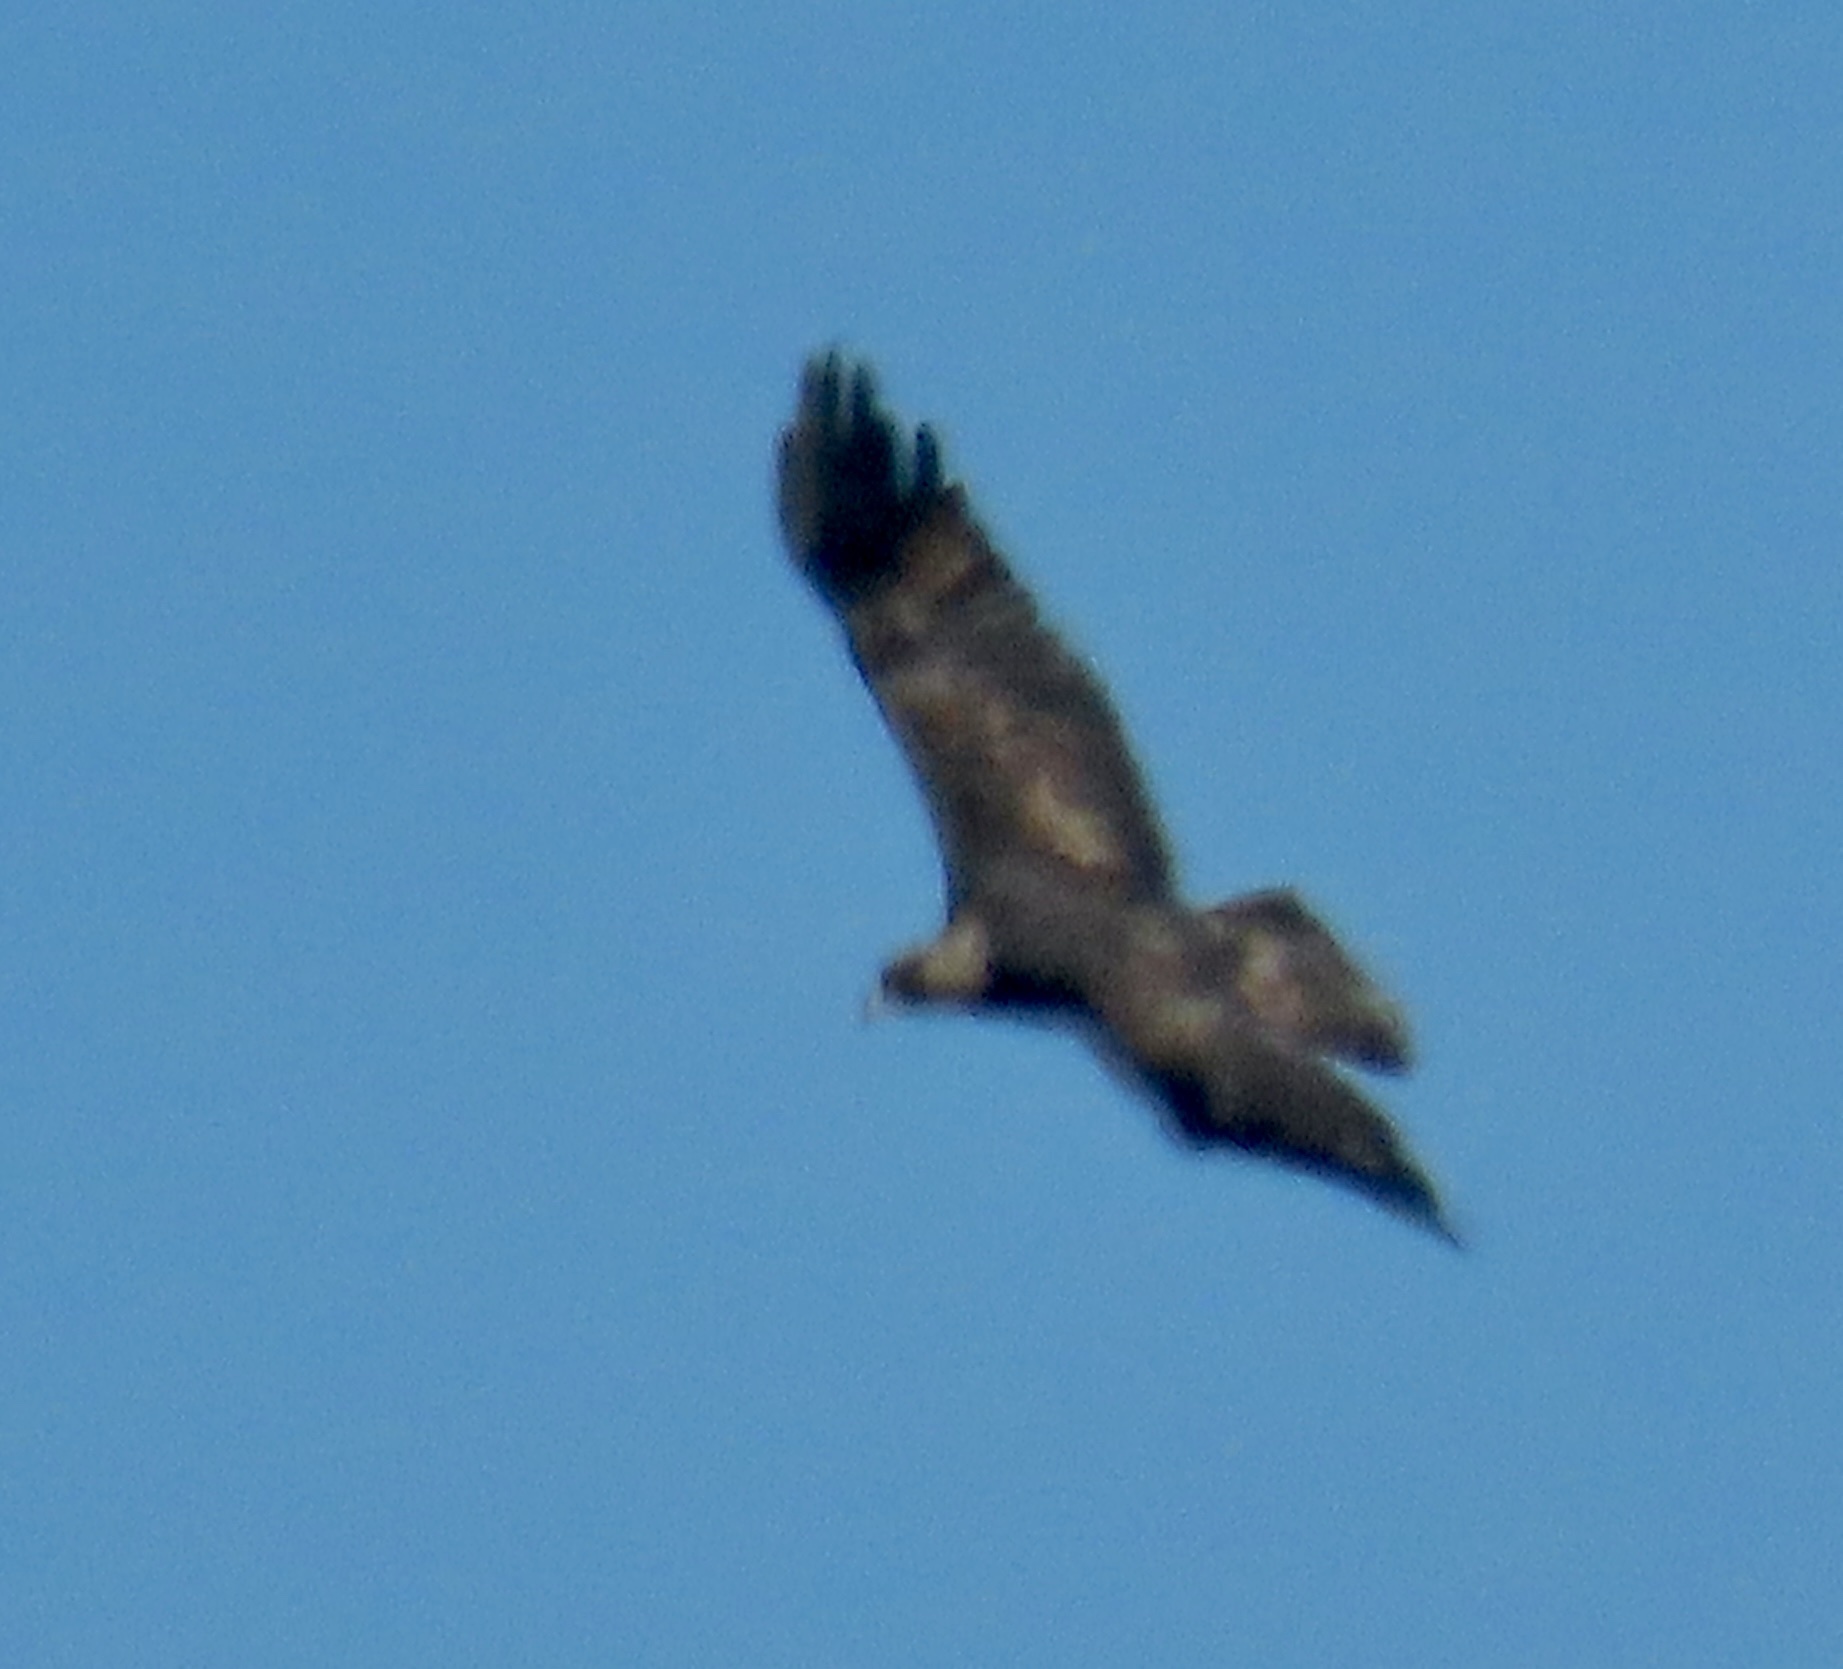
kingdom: Animalia
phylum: Chordata
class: Aves
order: Accipitriformes
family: Accipitridae
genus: Aquila
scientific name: Aquila chrysaetos
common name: Golden eagle
